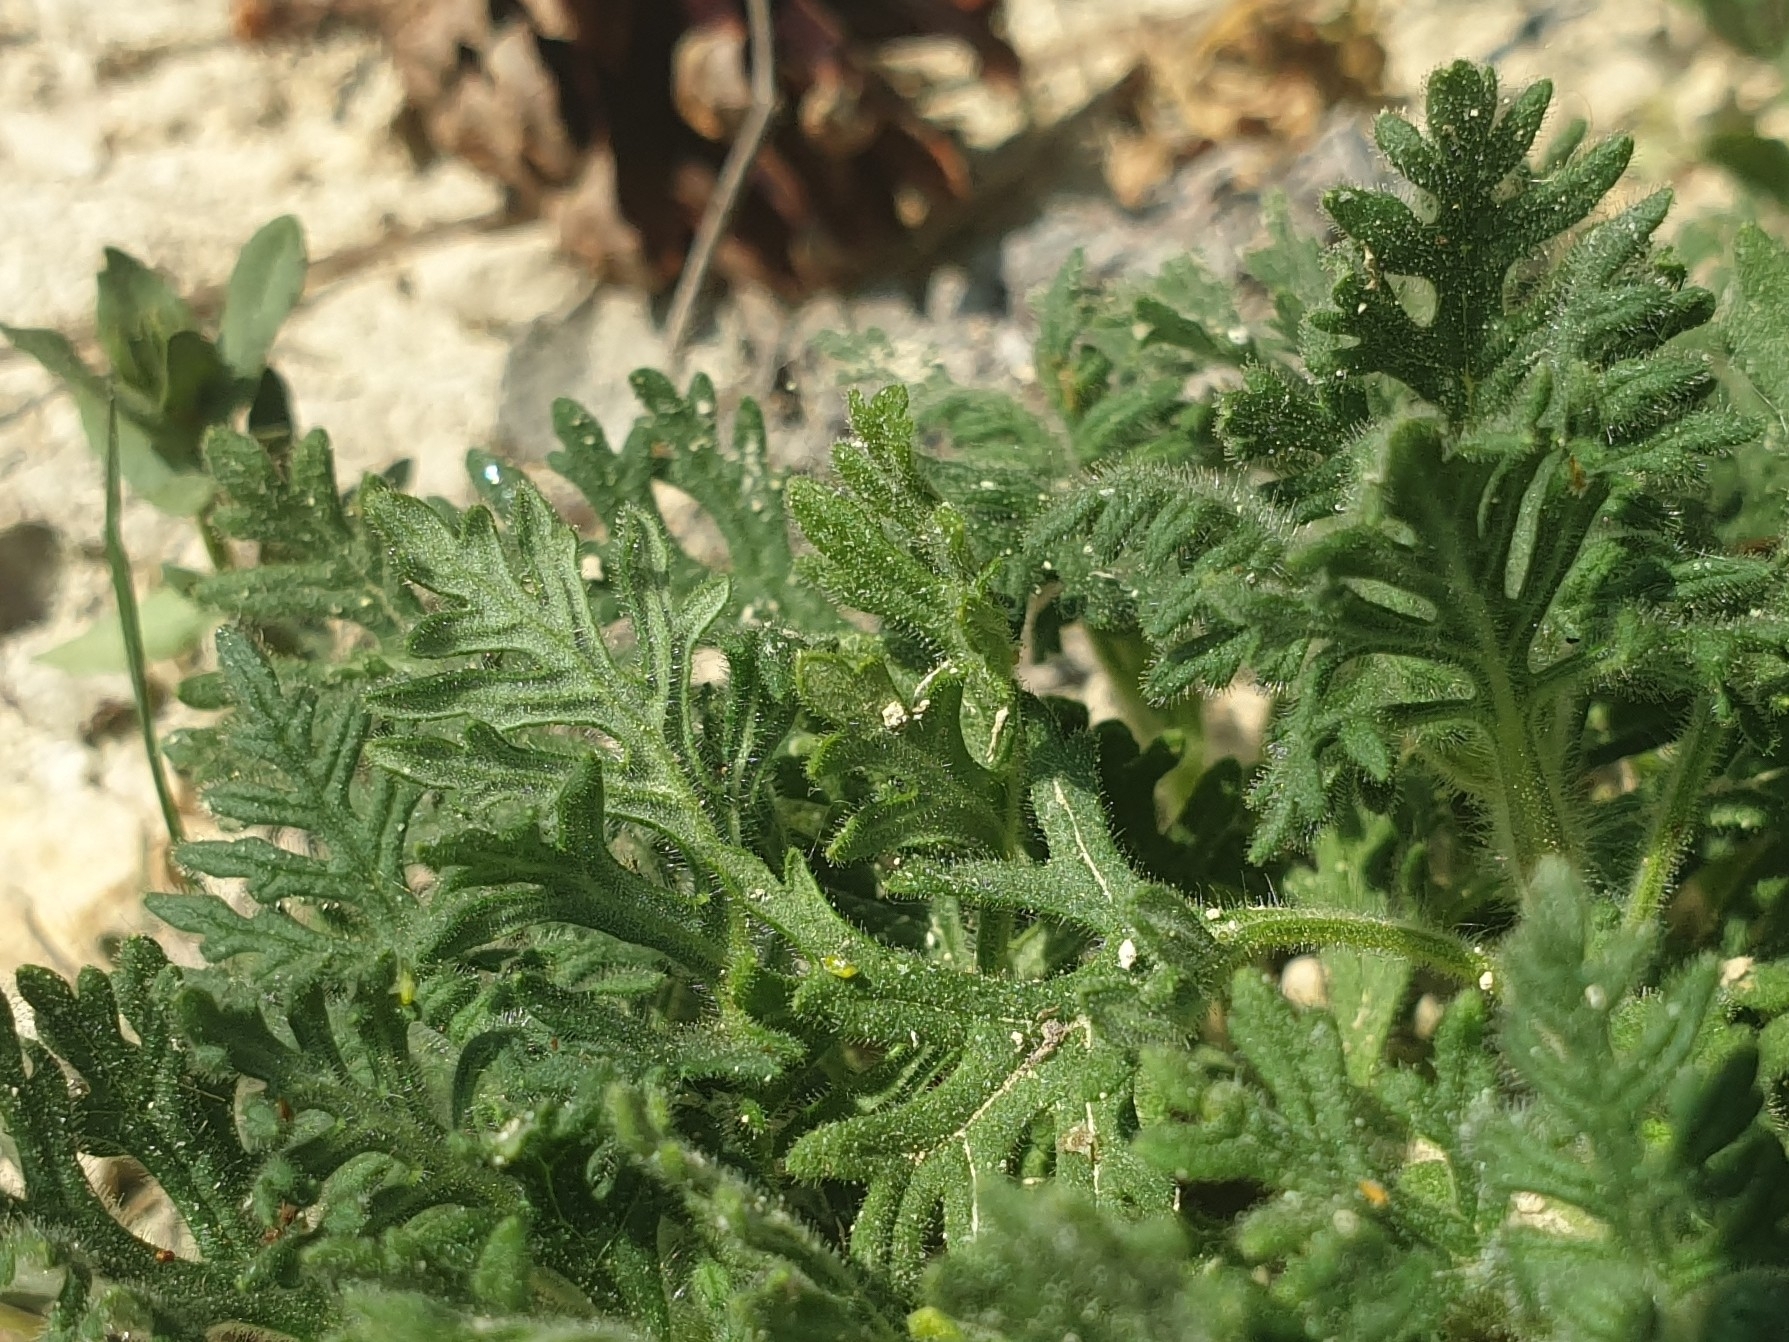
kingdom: Plantae
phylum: Tracheophyta
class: Magnoliopsida
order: Lamiales
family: Lamiaceae
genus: Teucrium
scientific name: Teucrium botrys
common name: Cut-leaved germander
